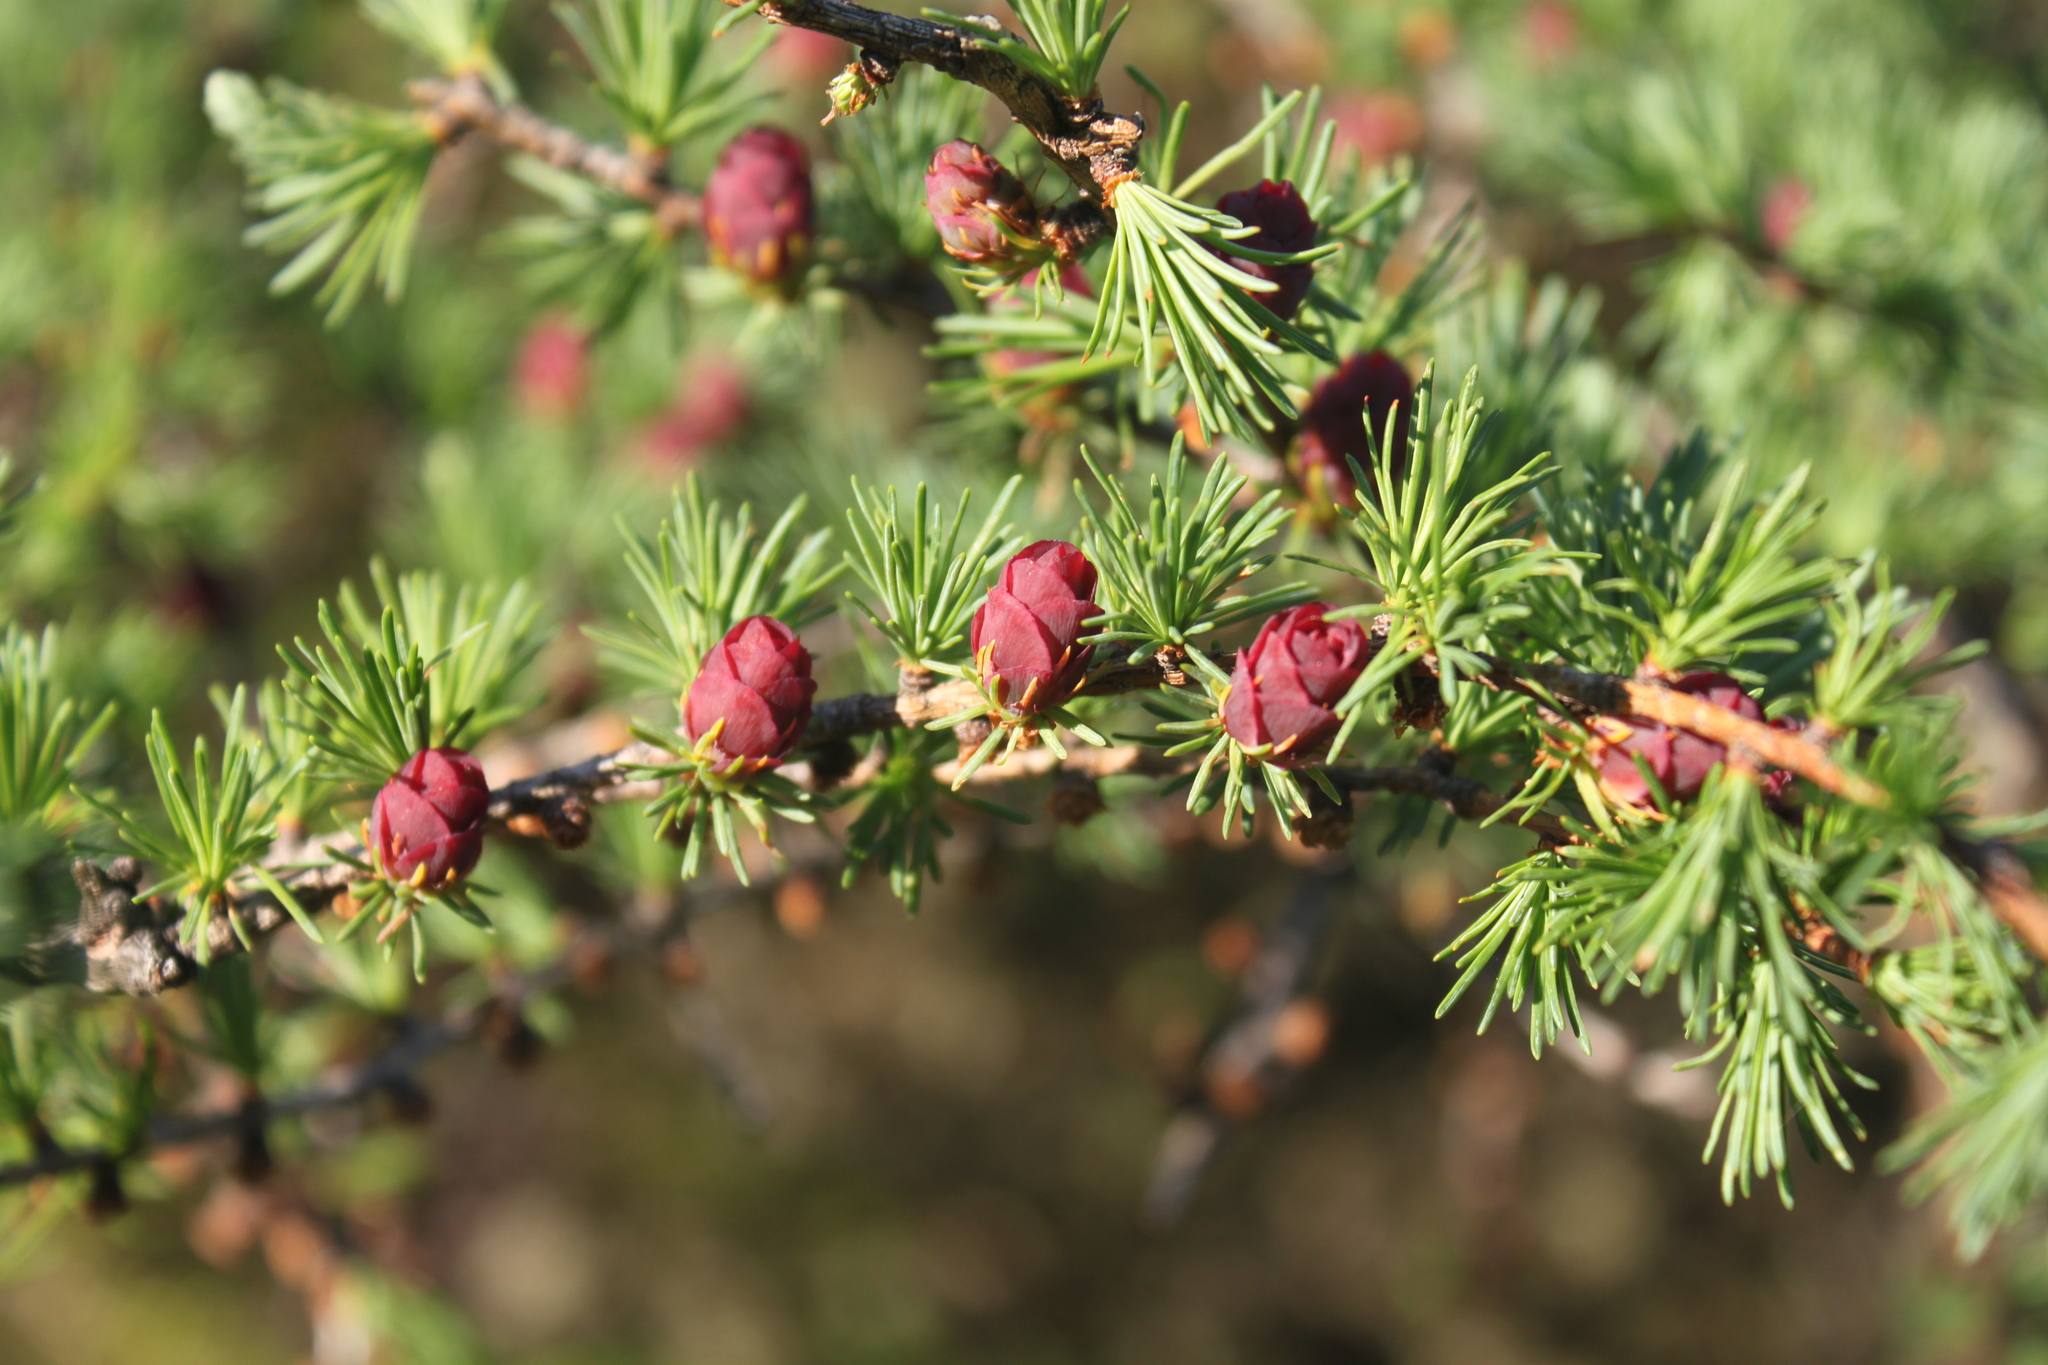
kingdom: Plantae
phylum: Tracheophyta
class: Pinopsida
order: Pinales
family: Pinaceae
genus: Larix
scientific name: Larix laricina
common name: American larch
